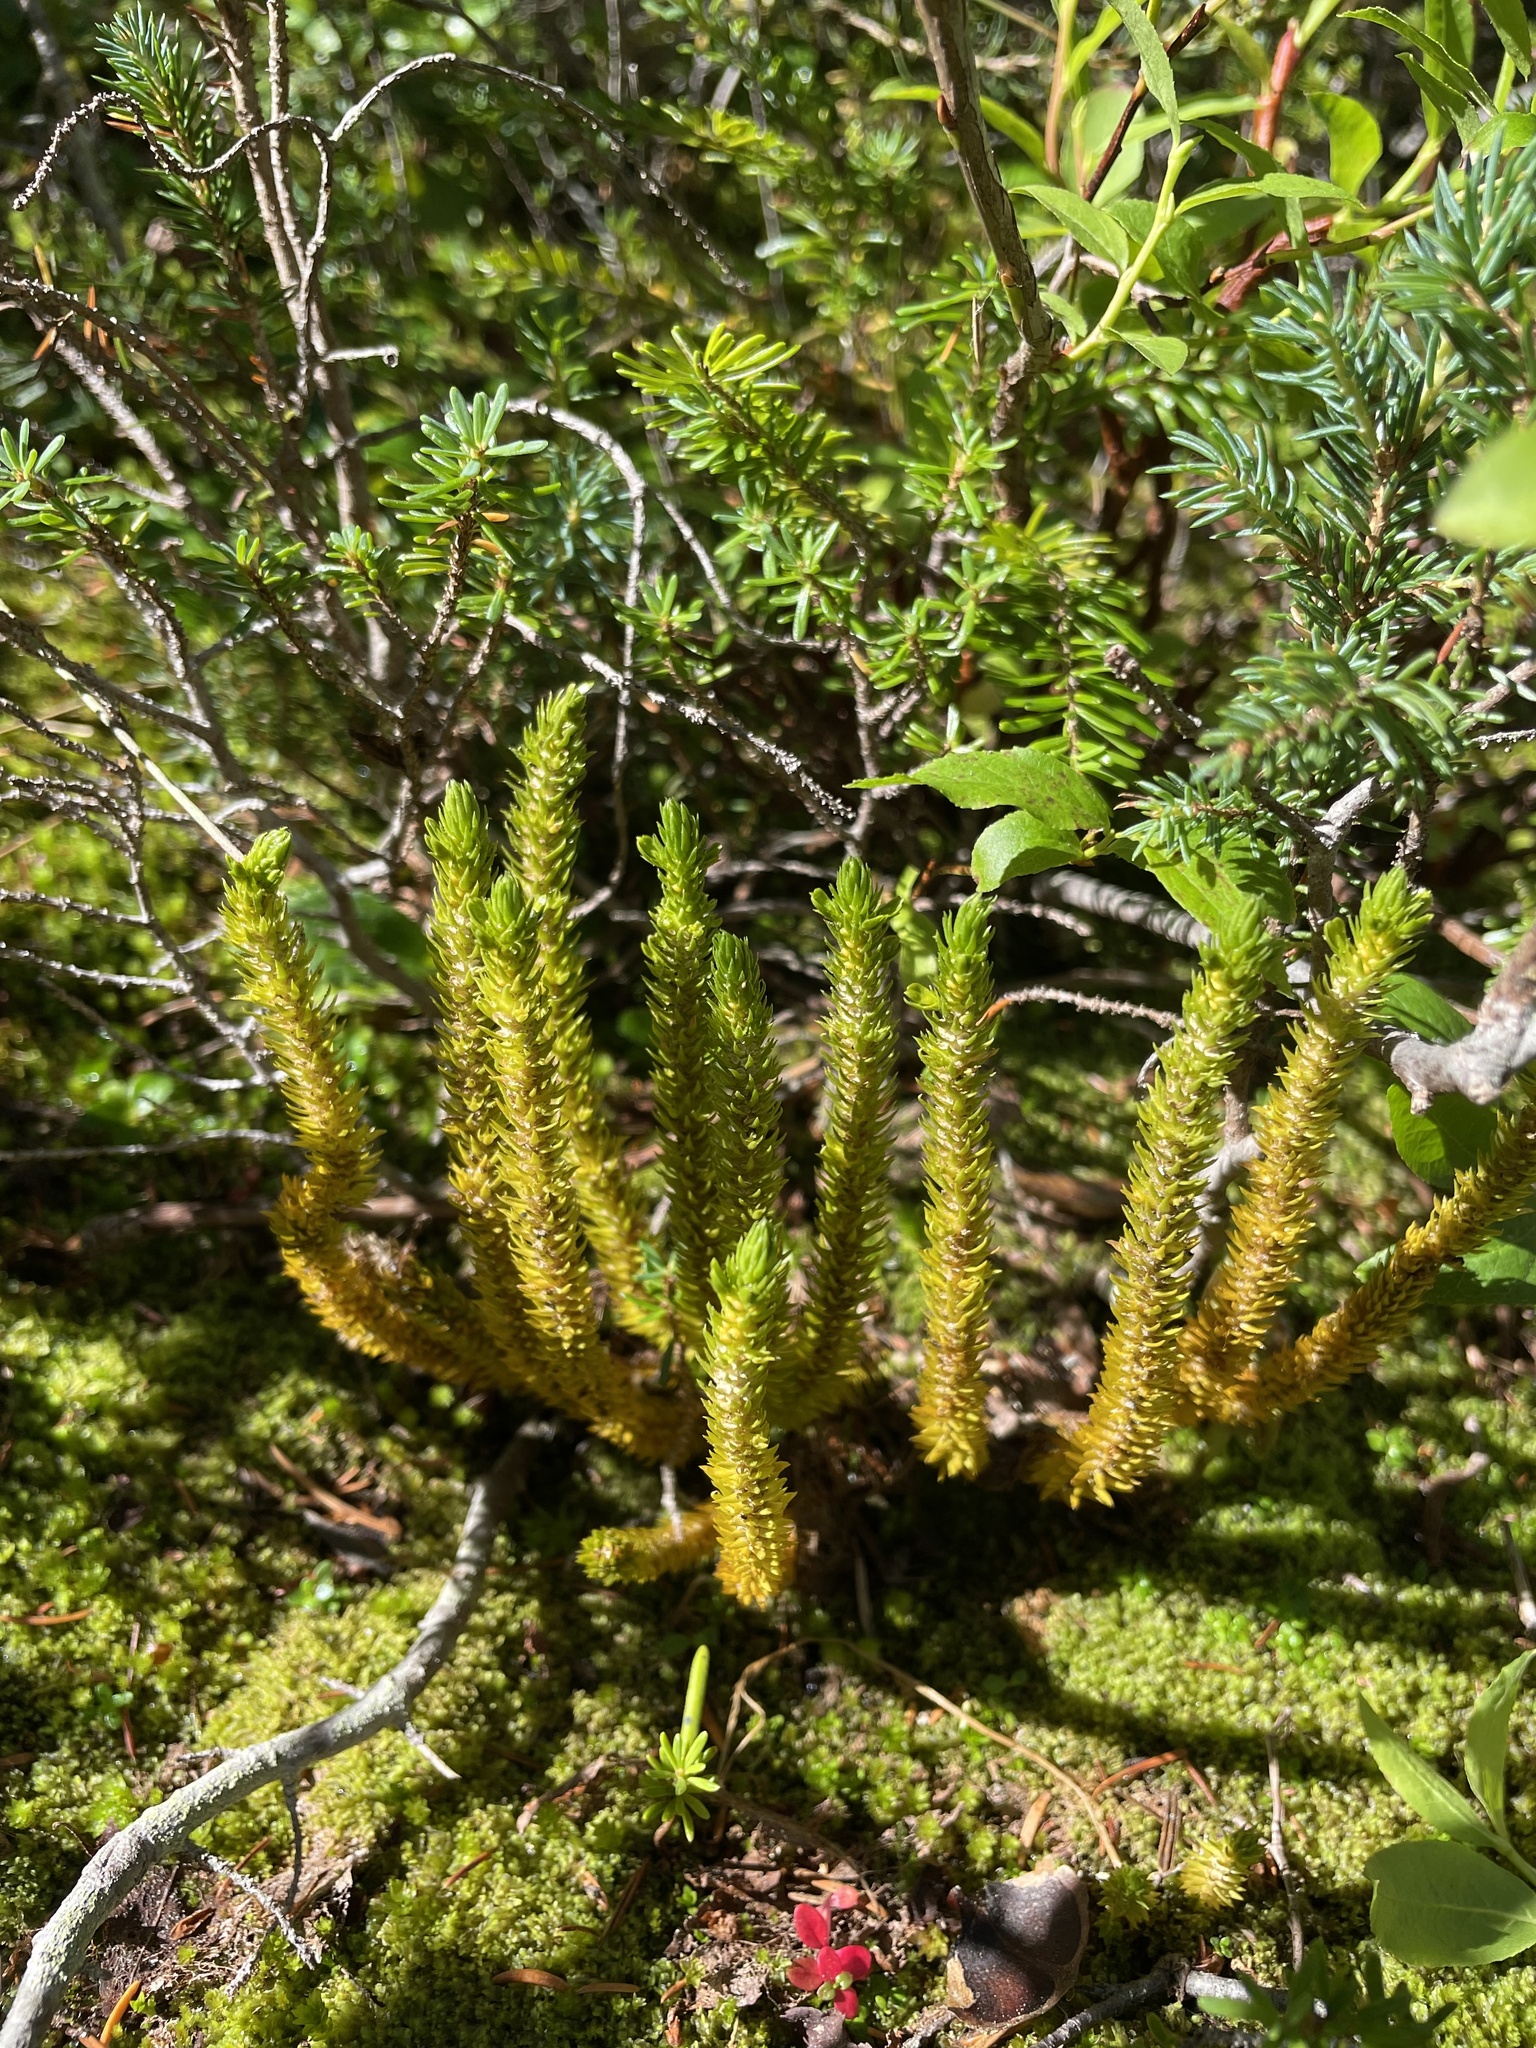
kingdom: Plantae
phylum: Tracheophyta
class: Lycopodiopsida
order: Lycopodiales
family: Lycopodiaceae
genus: Huperzia
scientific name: Huperzia continentalis
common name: Continental firmoss
